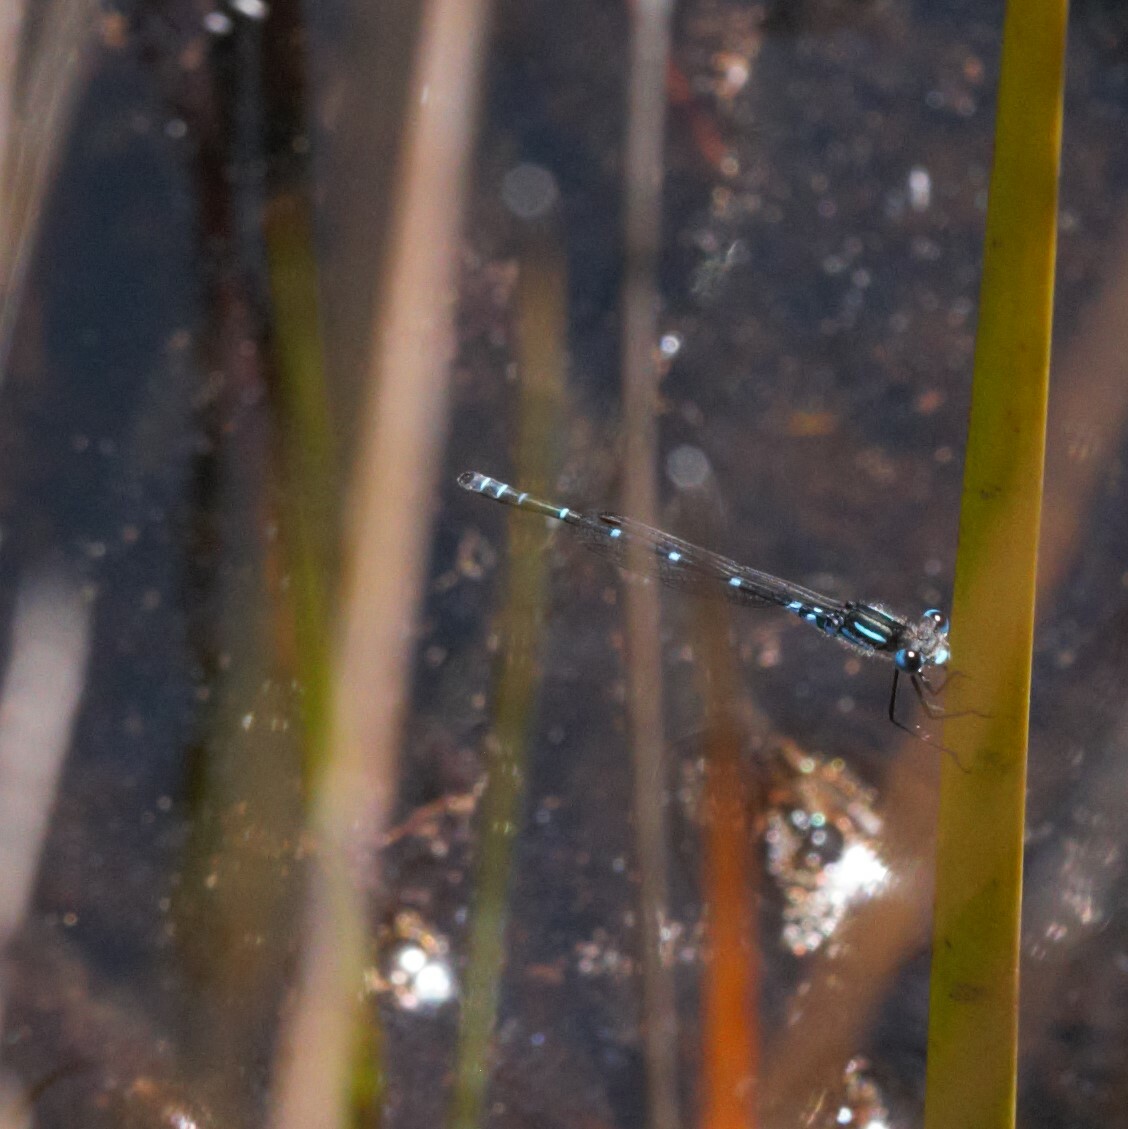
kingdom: Animalia
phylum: Arthropoda
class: Insecta
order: Odonata
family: Lestidae
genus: Austrolestes
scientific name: Austrolestes aleison
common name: Western ringtail
